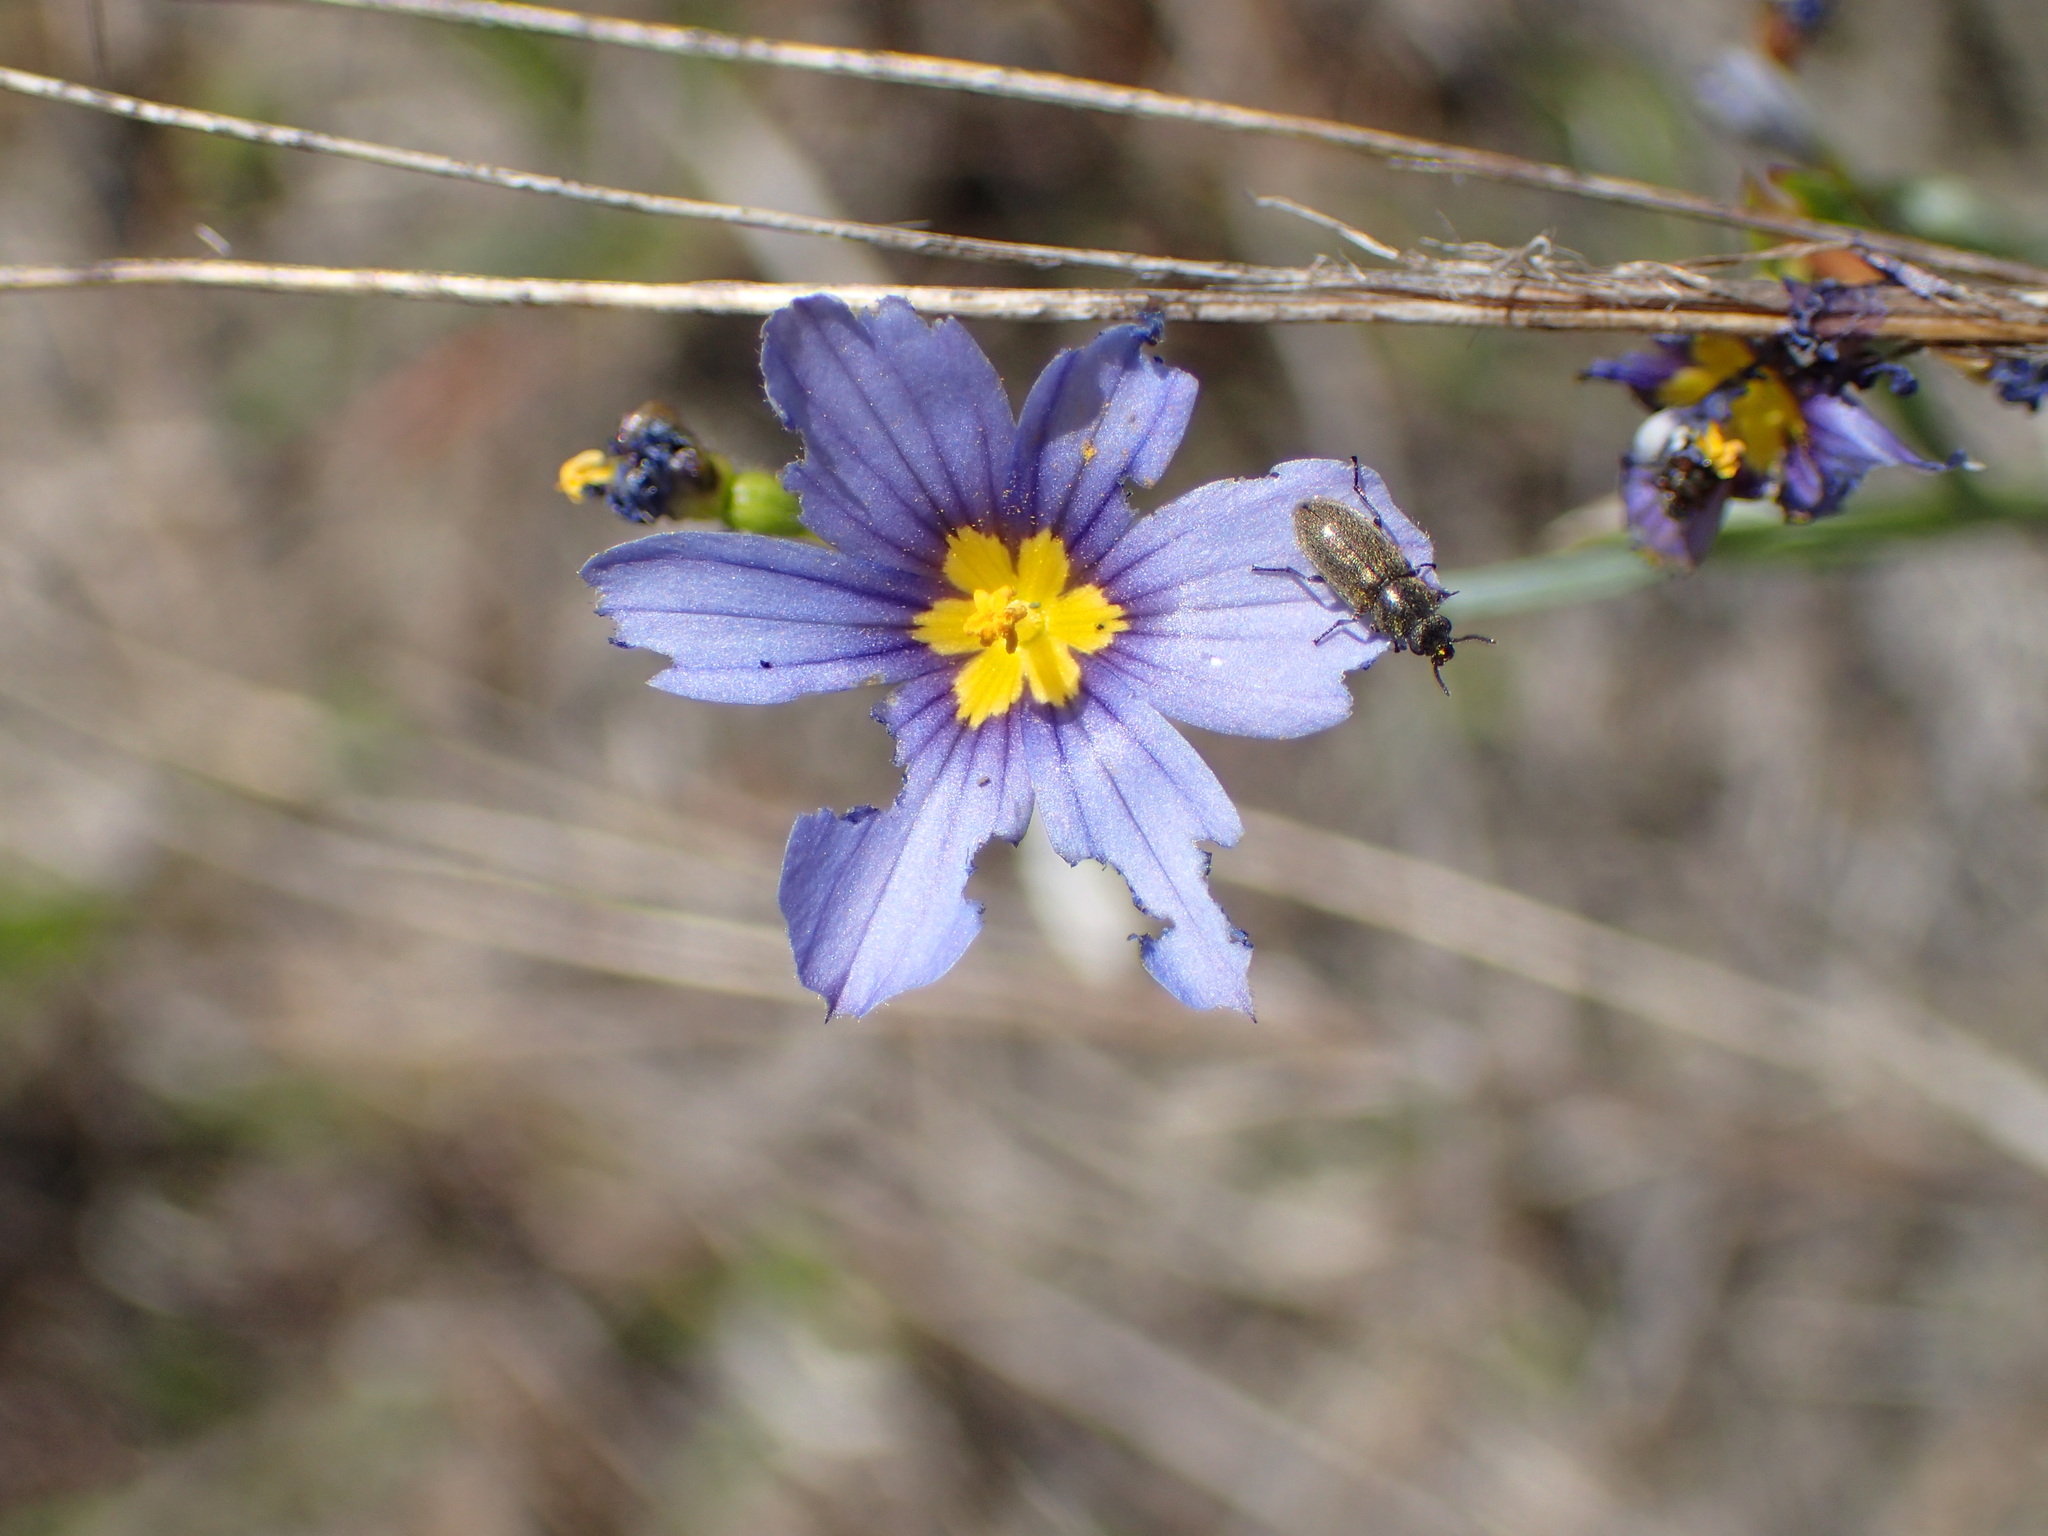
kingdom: Plantae
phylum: Tracheophyta
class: Liliopsida
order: Asparagales
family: Iridaceae
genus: Sisyrinchium
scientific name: Sisyrinchium bellum
